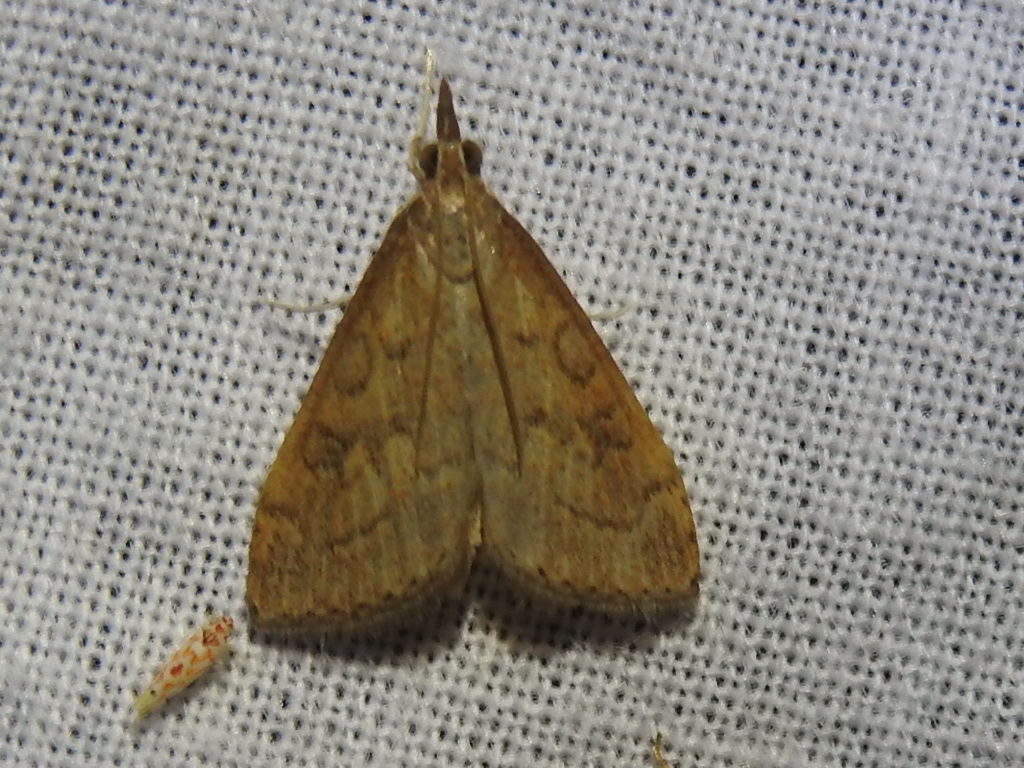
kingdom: Animalia
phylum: Arthropoda
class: Insecta
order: Lepidoptera
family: Crambidae
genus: Udea
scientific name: Udea rubigalis
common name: Celery leaftier moth
